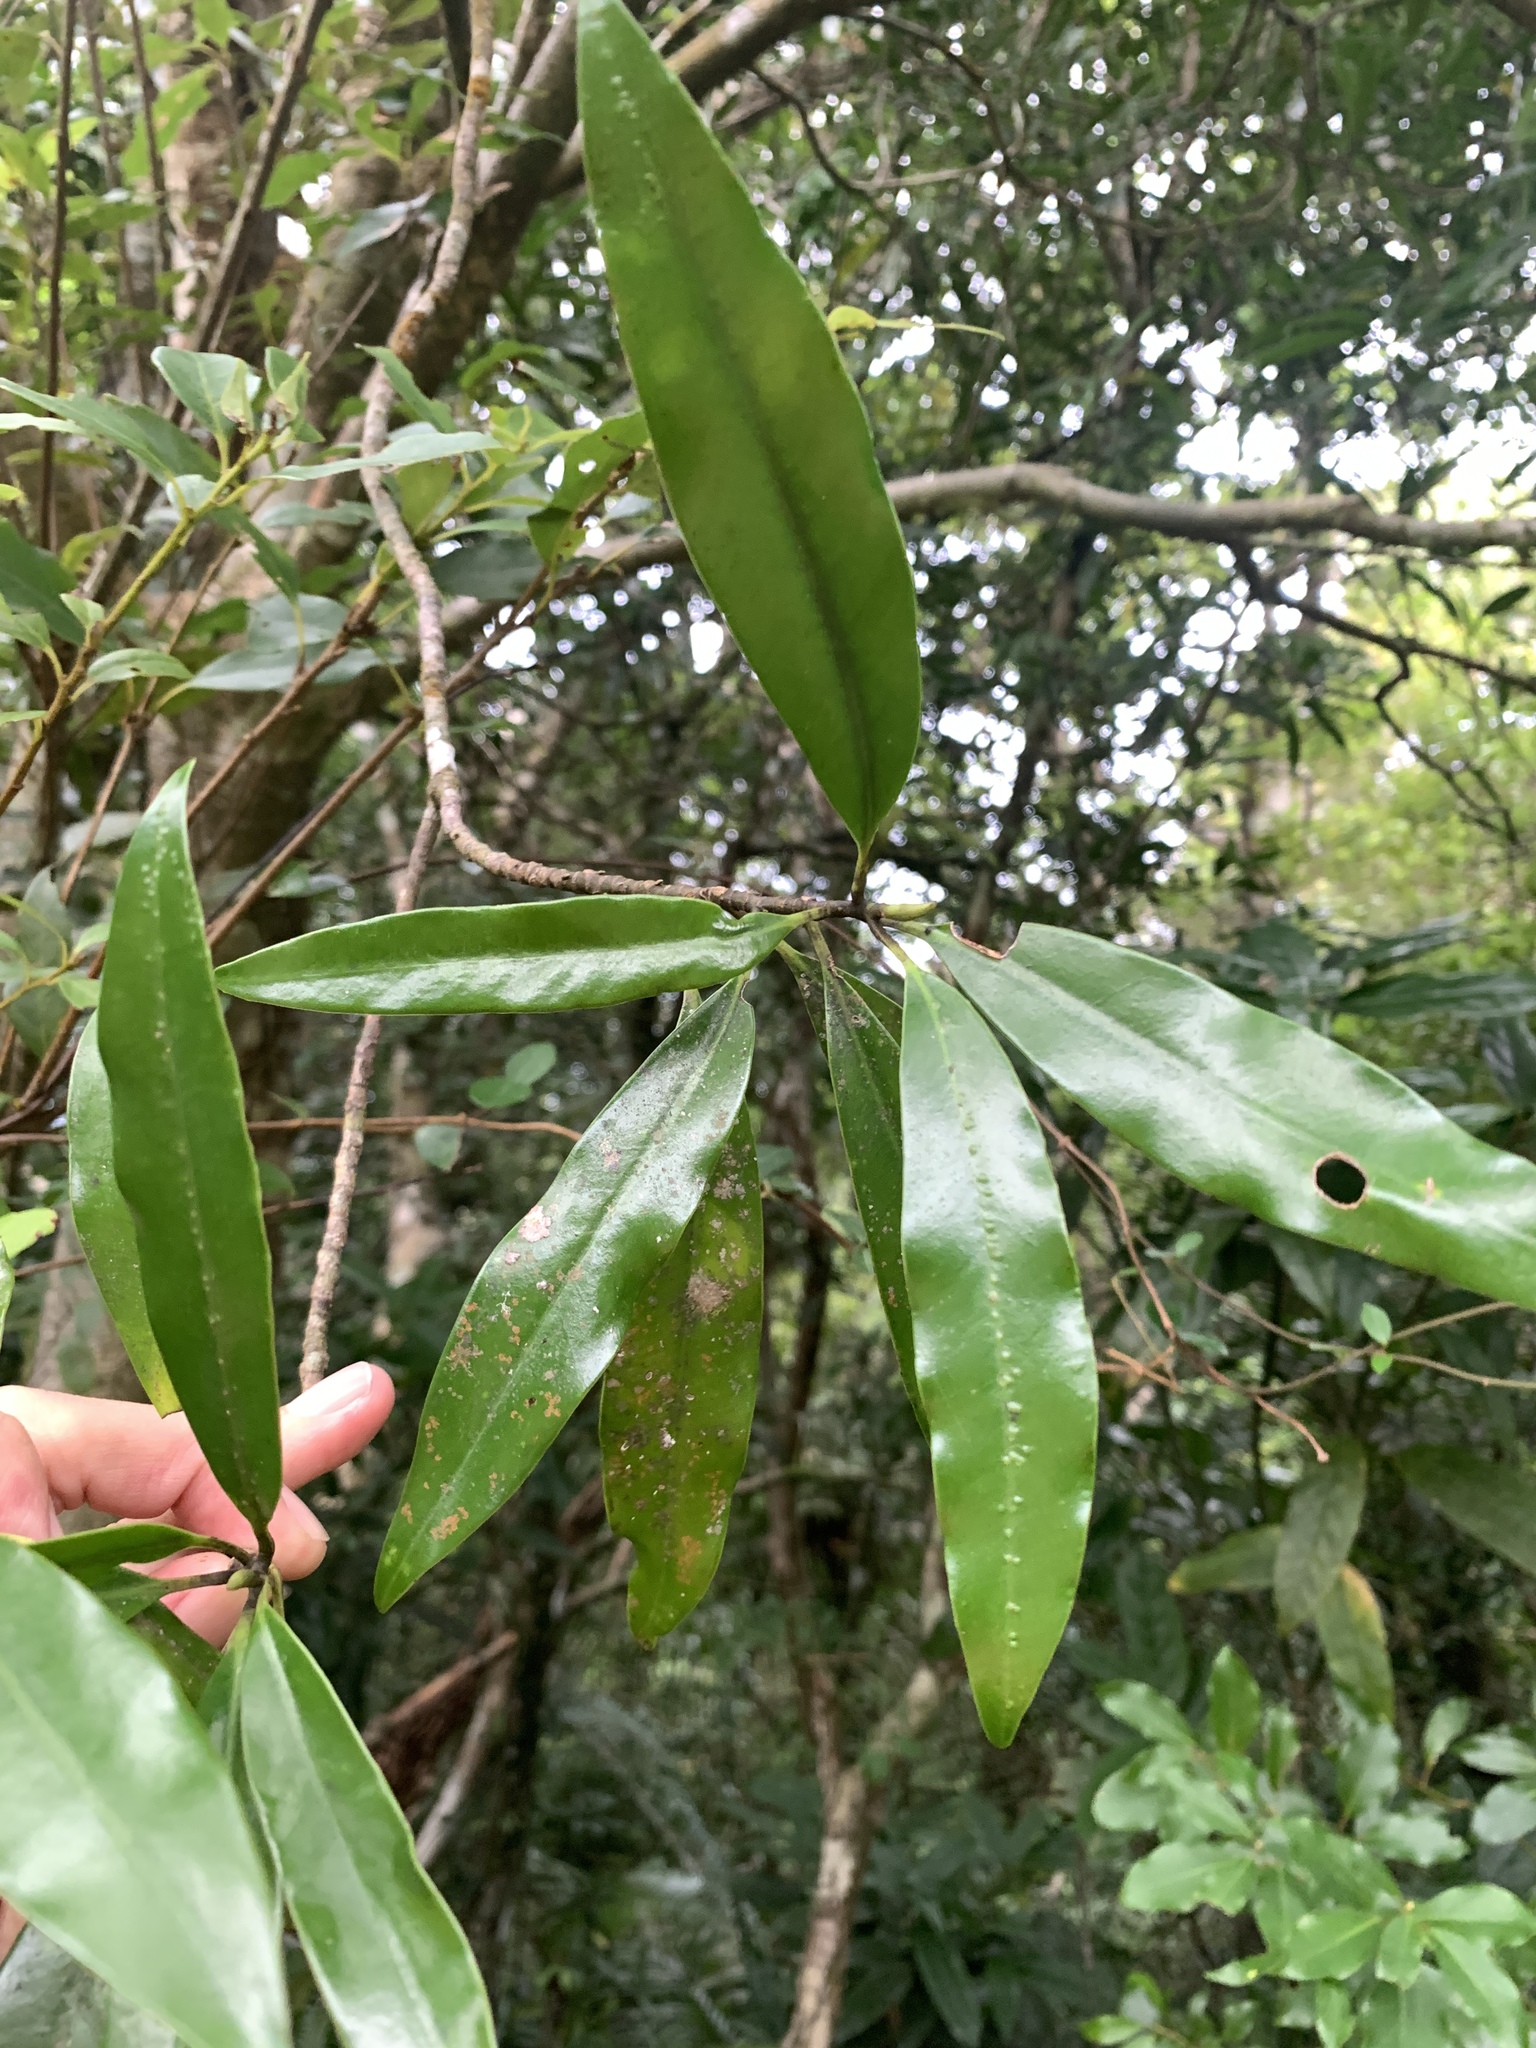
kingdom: Plantae
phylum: Tracheophyta
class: Magnoliopsida
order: Magnoliales
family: Magnoliaceae
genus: Magnolia
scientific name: Magnolia kachirachirai
